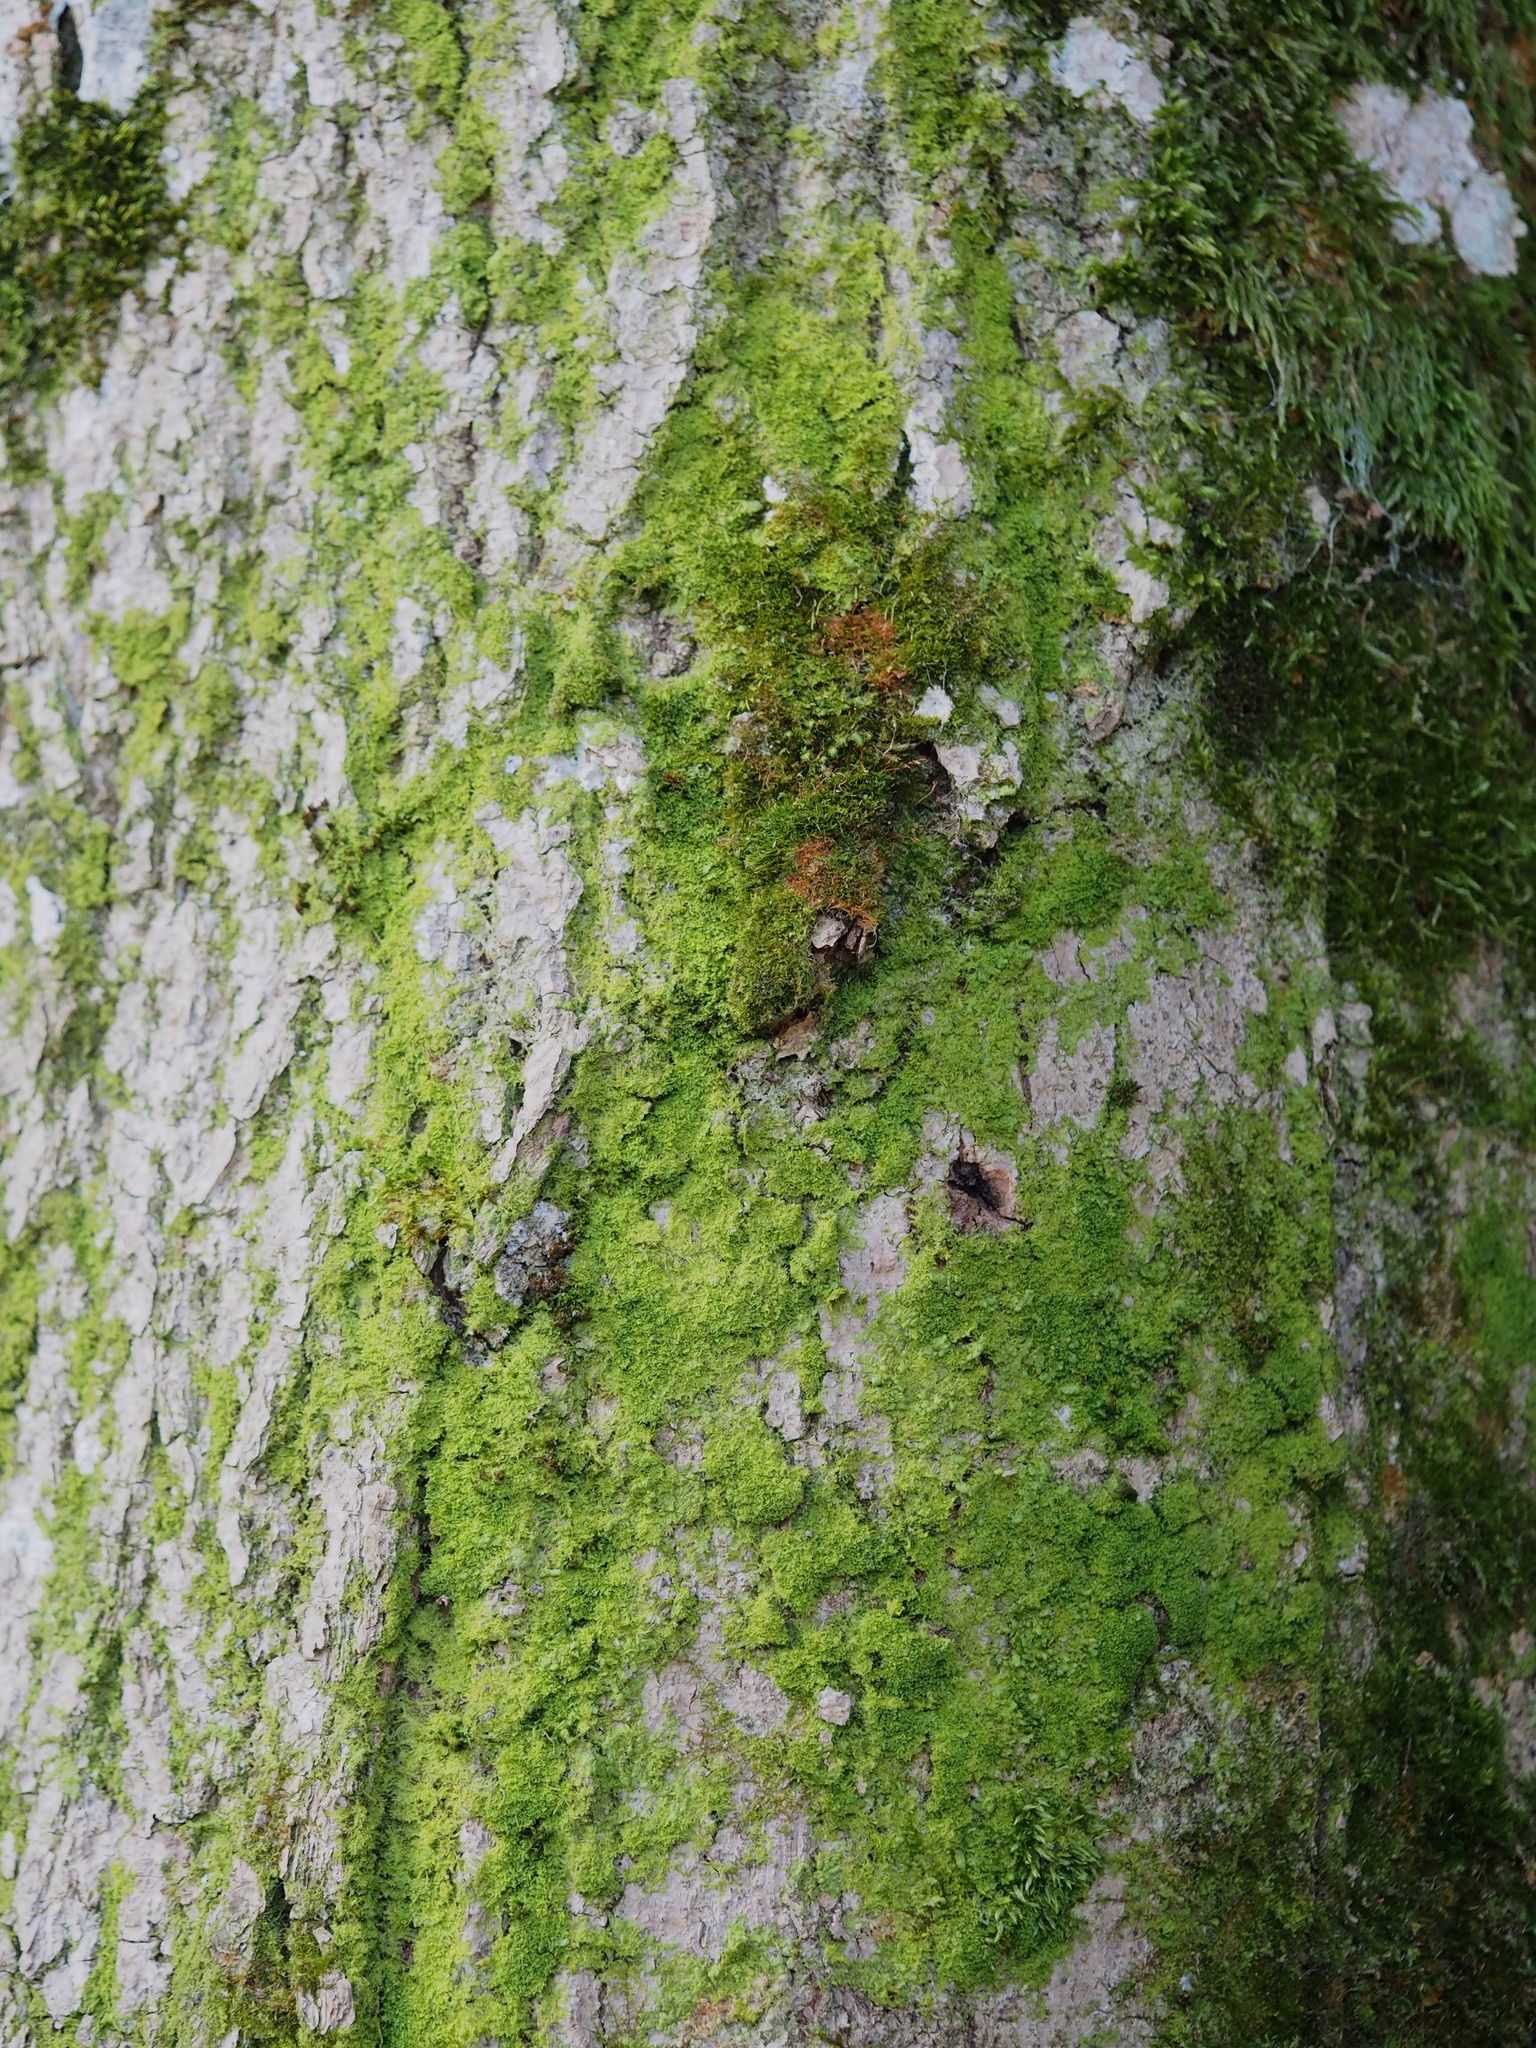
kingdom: Plantae
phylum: Marchantiophyta
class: Jungermanniopsida
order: Metzgeriales
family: Metzgeriaceae
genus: Metzgeria
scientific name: Metzgeria furcata
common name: Forked veilwort
